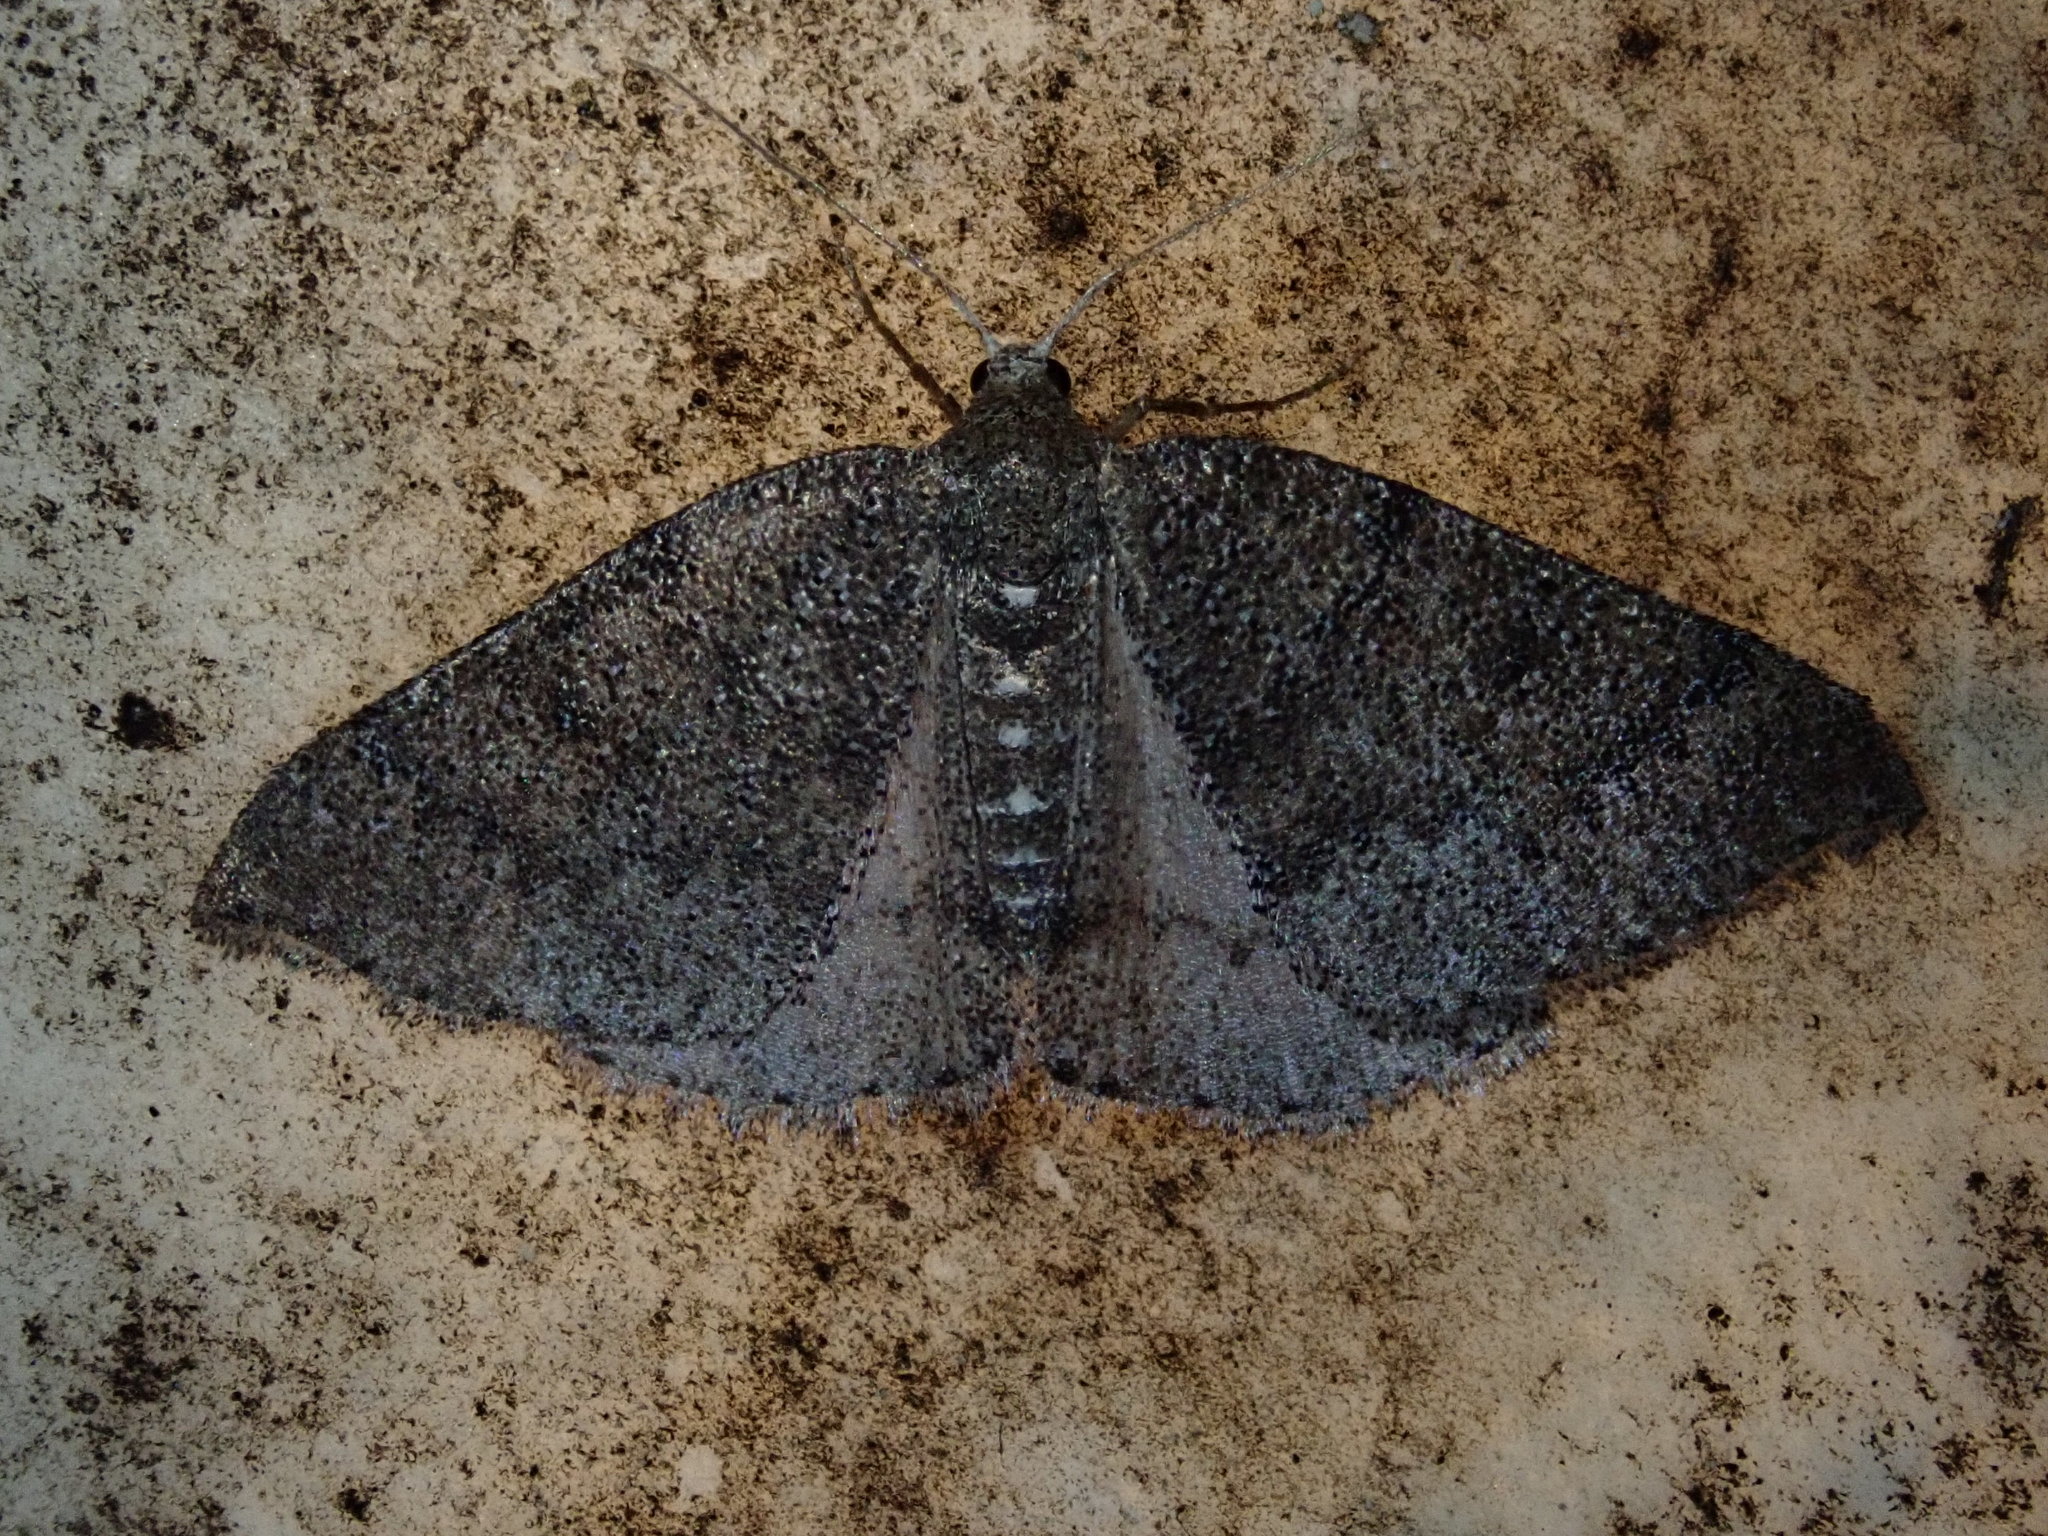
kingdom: Animalia
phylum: Arthropoda
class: Insecta
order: Lepidoptera
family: Geometridae
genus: Aleucis
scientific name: Aleucis distinctata
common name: Sloe carpet
